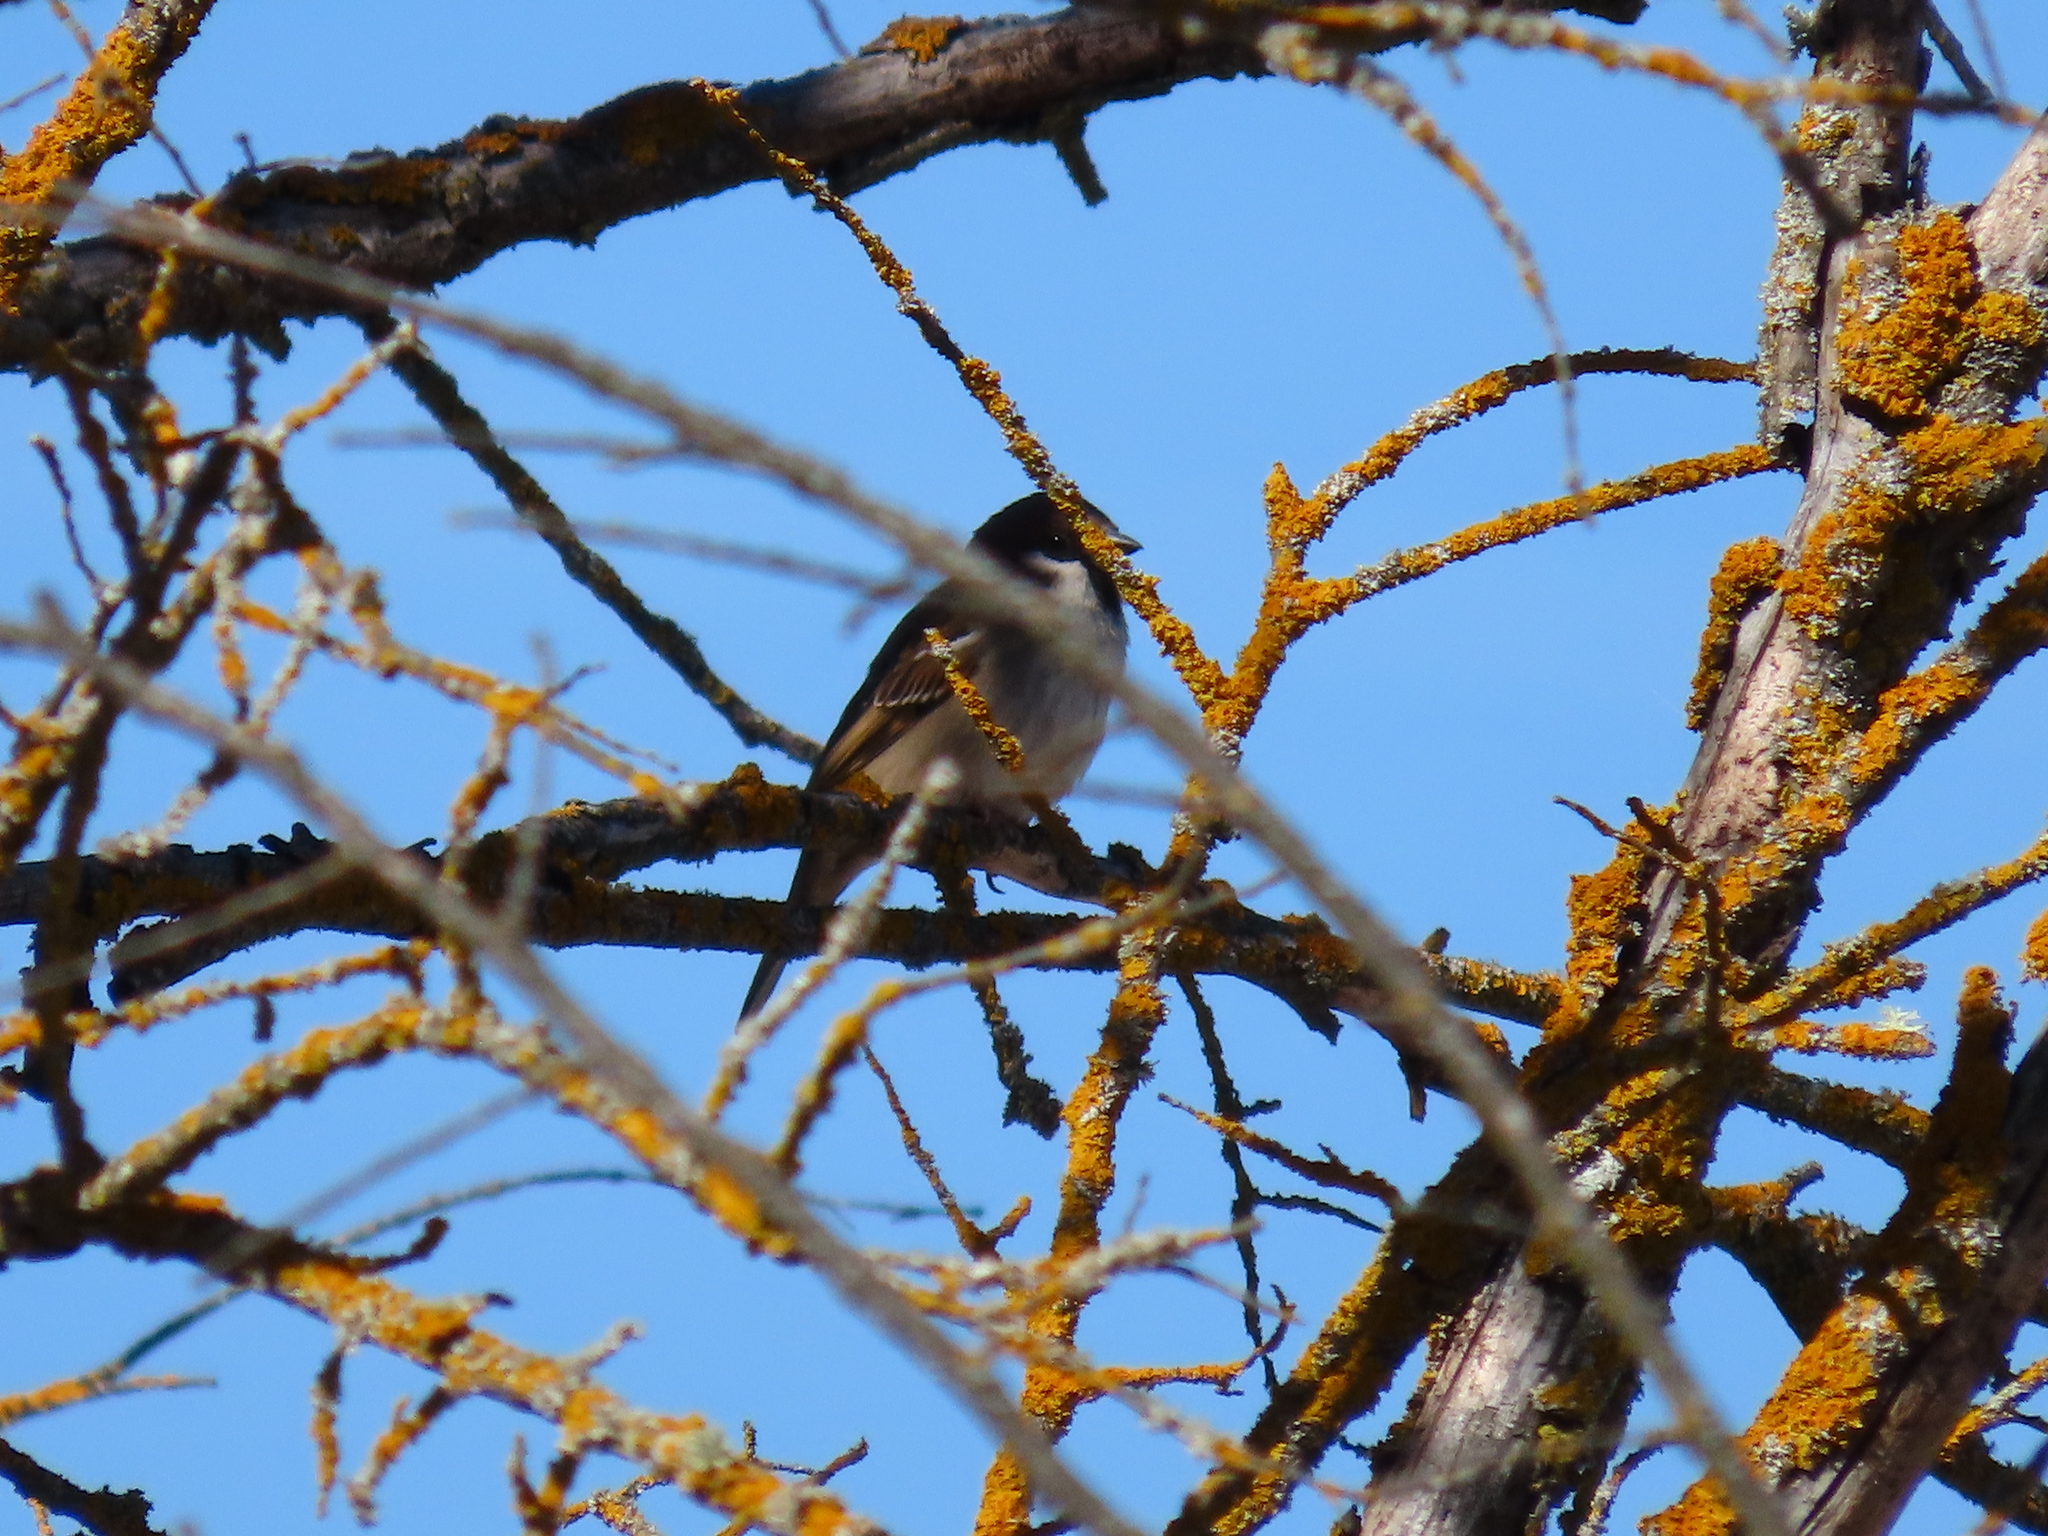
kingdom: Animalia
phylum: Chordata
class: Aves
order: Passeriformes
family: Passeridae
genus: Passer
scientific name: Passer montanus
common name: Eurasian tree sparrow
